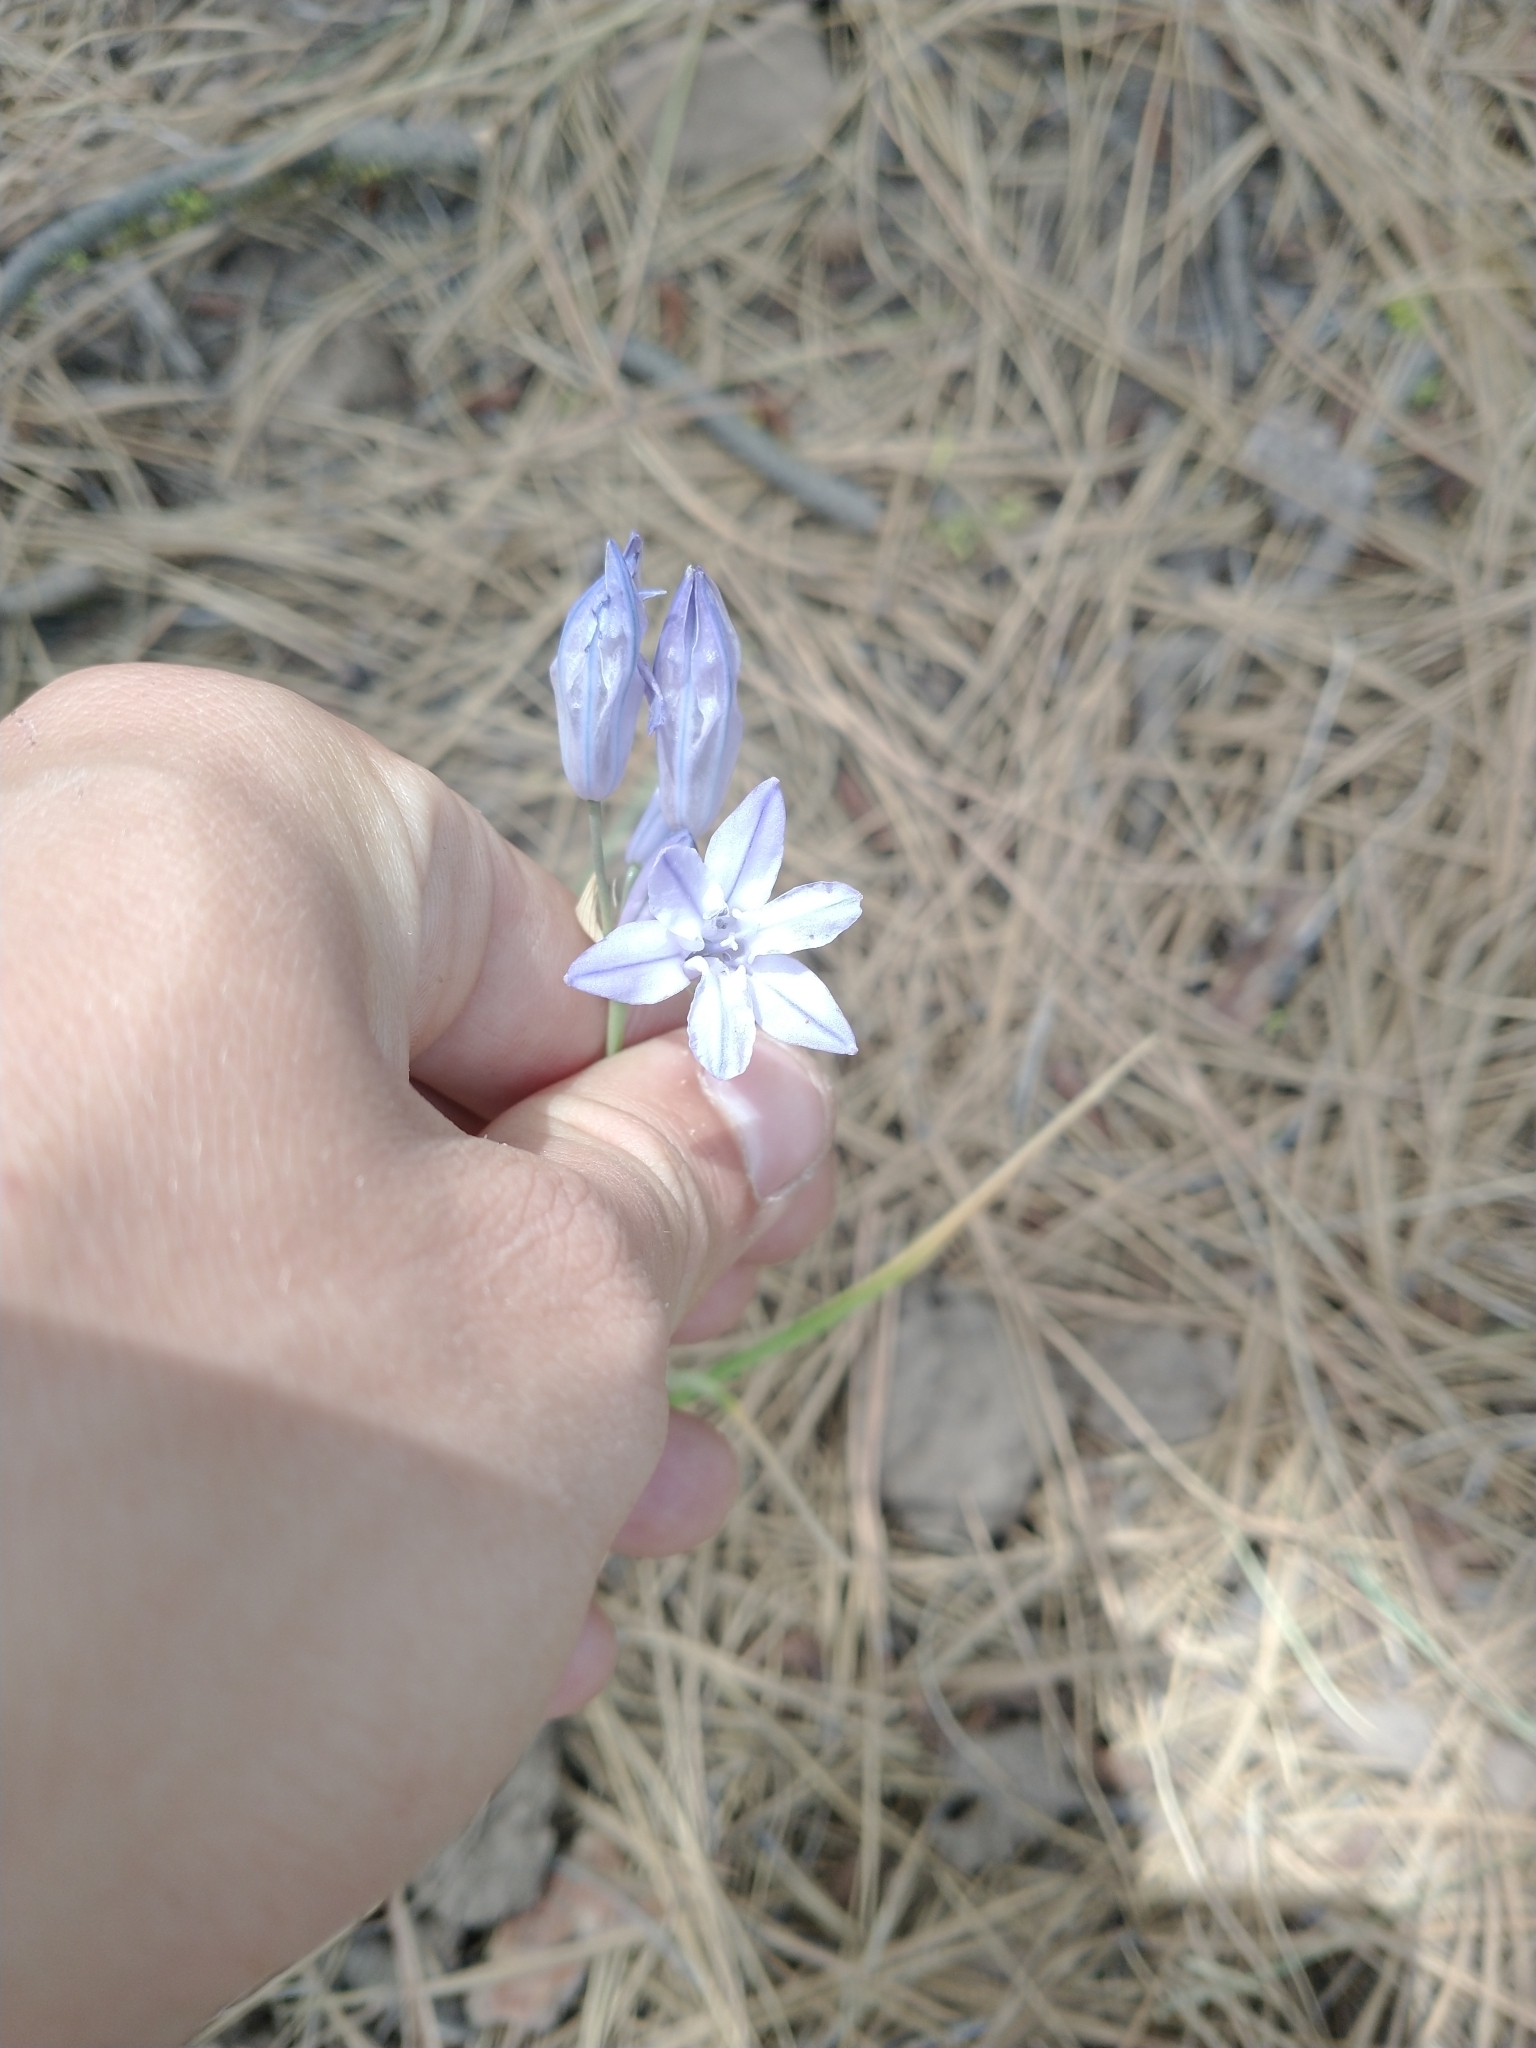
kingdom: Plantae
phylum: Tracheophyta
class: Liliopsida
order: Asparagales
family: Asparagaceae
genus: Triteleia
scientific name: Triteleia grandiflora
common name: Wild hyacinth
